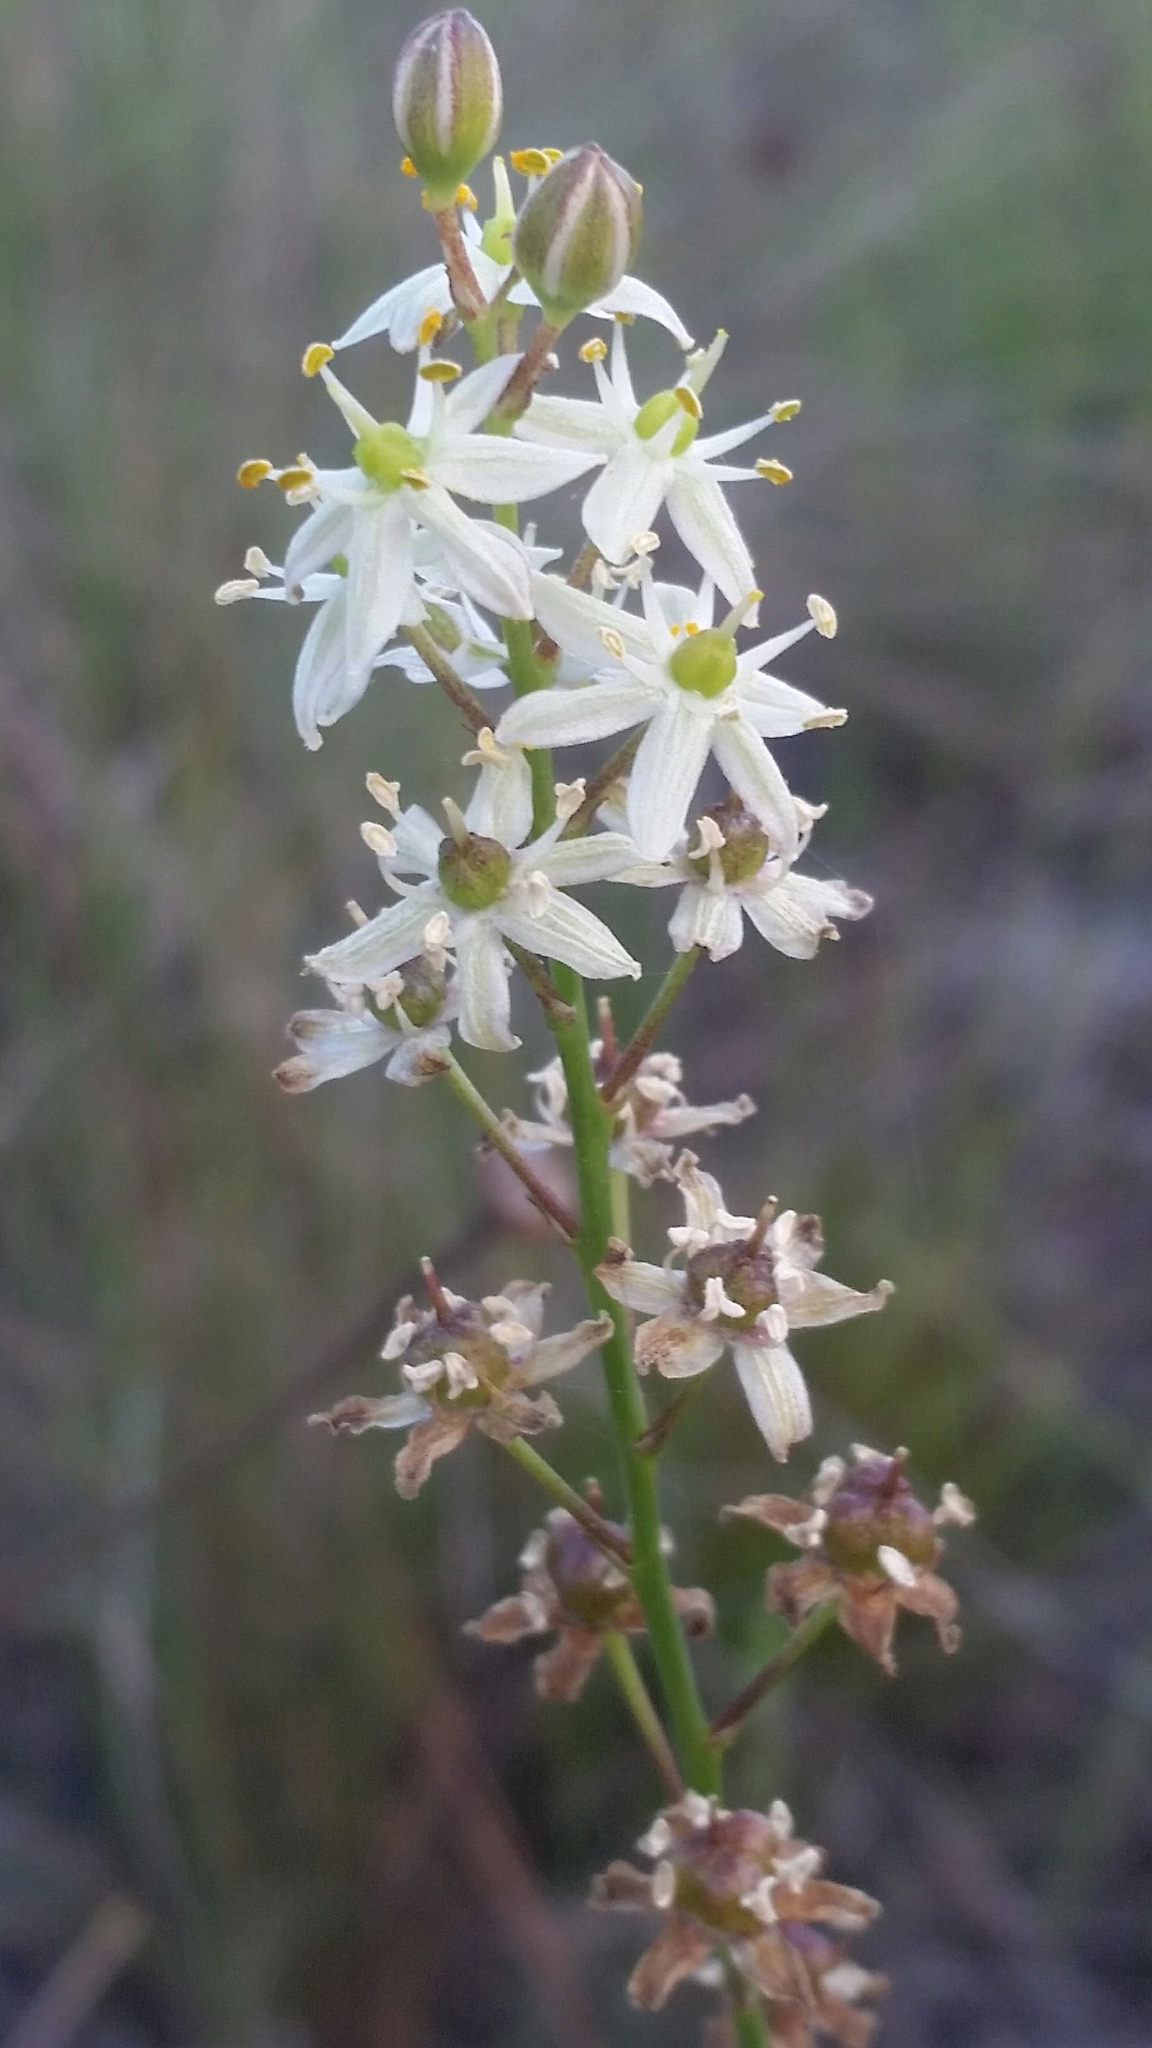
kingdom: Plantae
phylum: Tracheophyta
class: Liliopsida
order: Asparagales
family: Asparagaceae
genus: Schoenolirion
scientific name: Schoenolirion albiflorum
